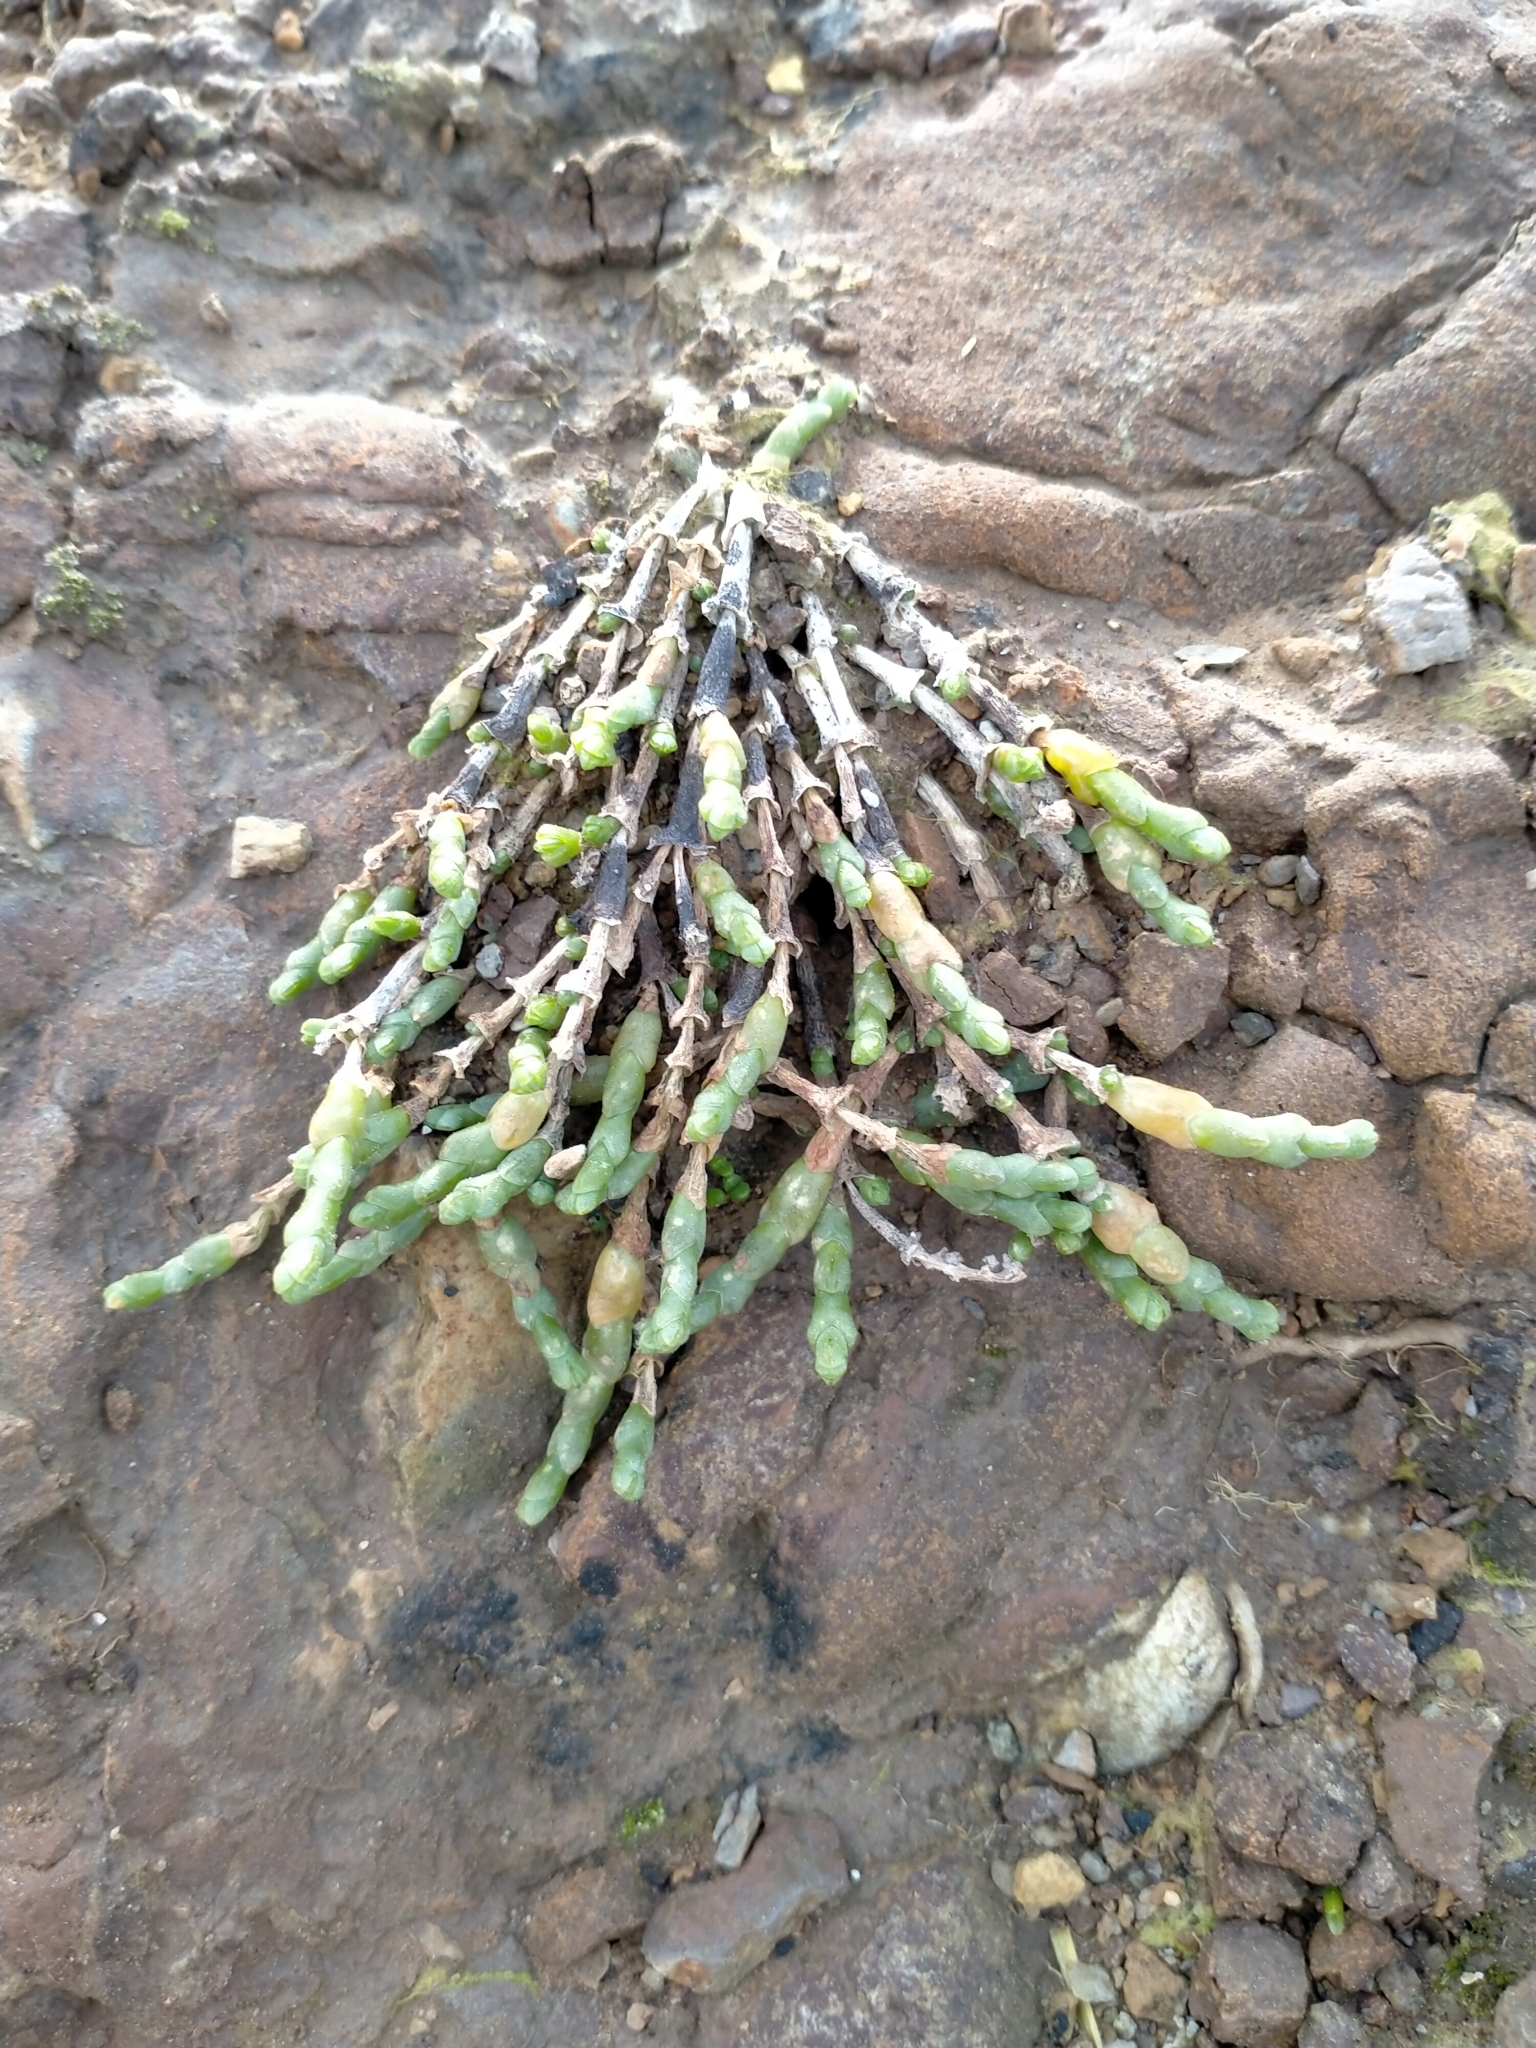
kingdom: Plantae
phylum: Tracheophyta
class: Magnoliopsida
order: Caryophyllales
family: Amaranthaceae
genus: Salicornia
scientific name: Salicornia quinqueflora
